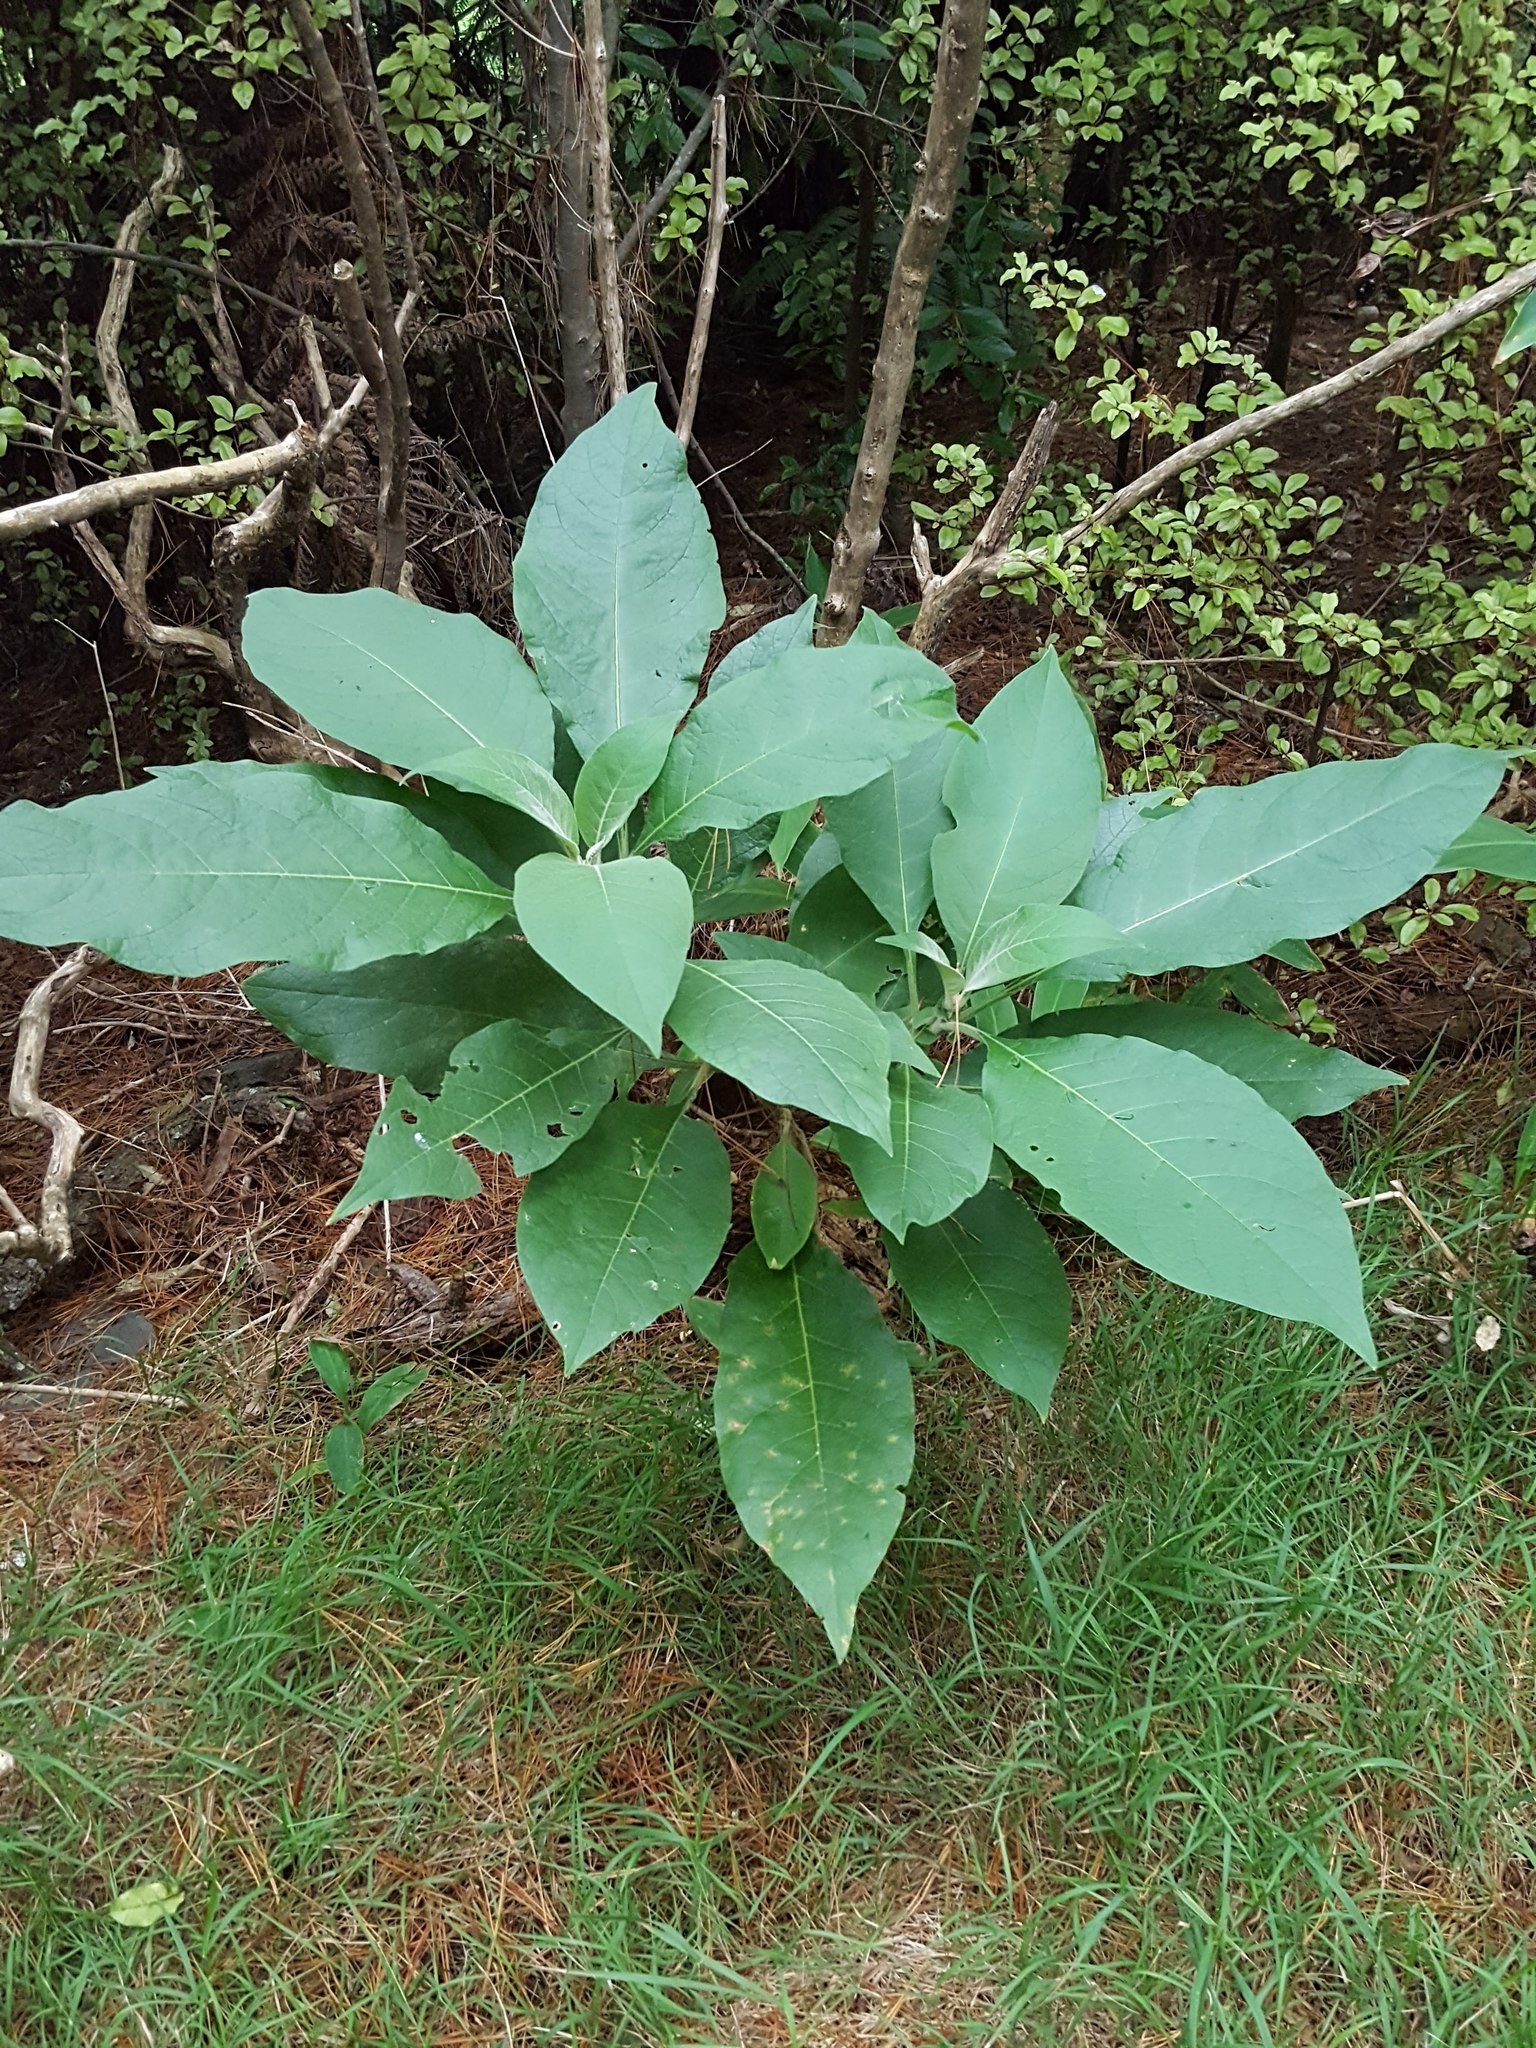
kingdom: Plantae
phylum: Tracheophyta
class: Magnoliopsida
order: Solanales
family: Solanaceae
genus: Solanum
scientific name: Solanum mauritianum
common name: Earleaf nightshade
